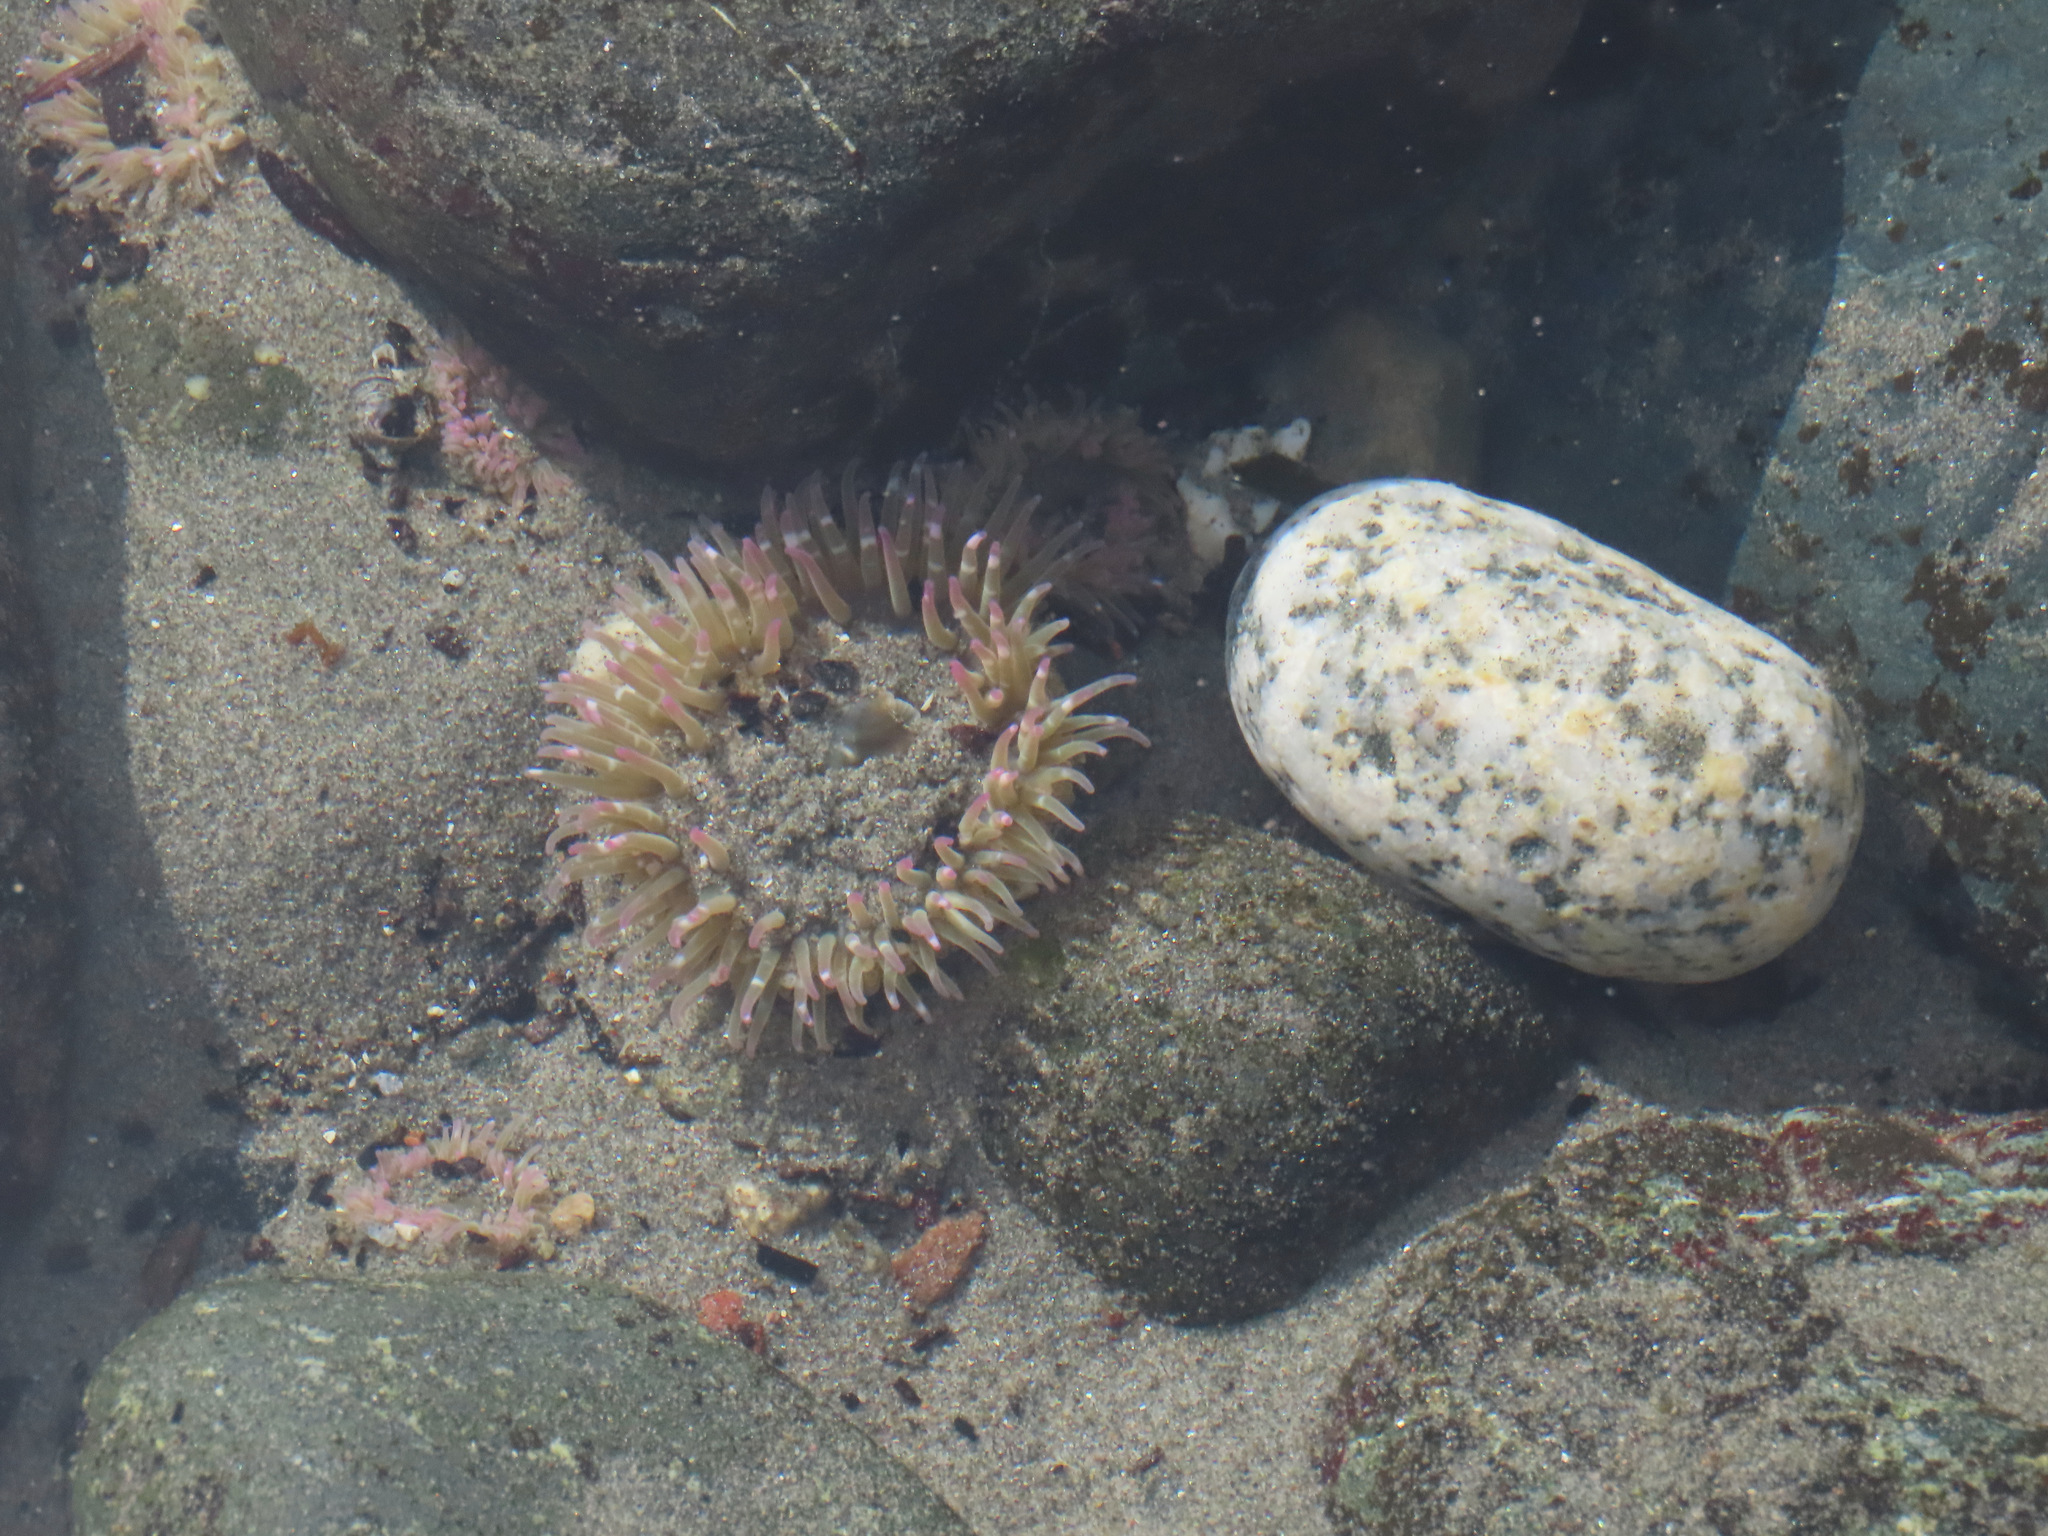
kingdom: Animalia
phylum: Cnidaria
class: Anthozoa
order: Actiniaria
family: Actiniidae
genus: Anthopleura
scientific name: Anthopleura elegantissima
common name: Clonal anemone
